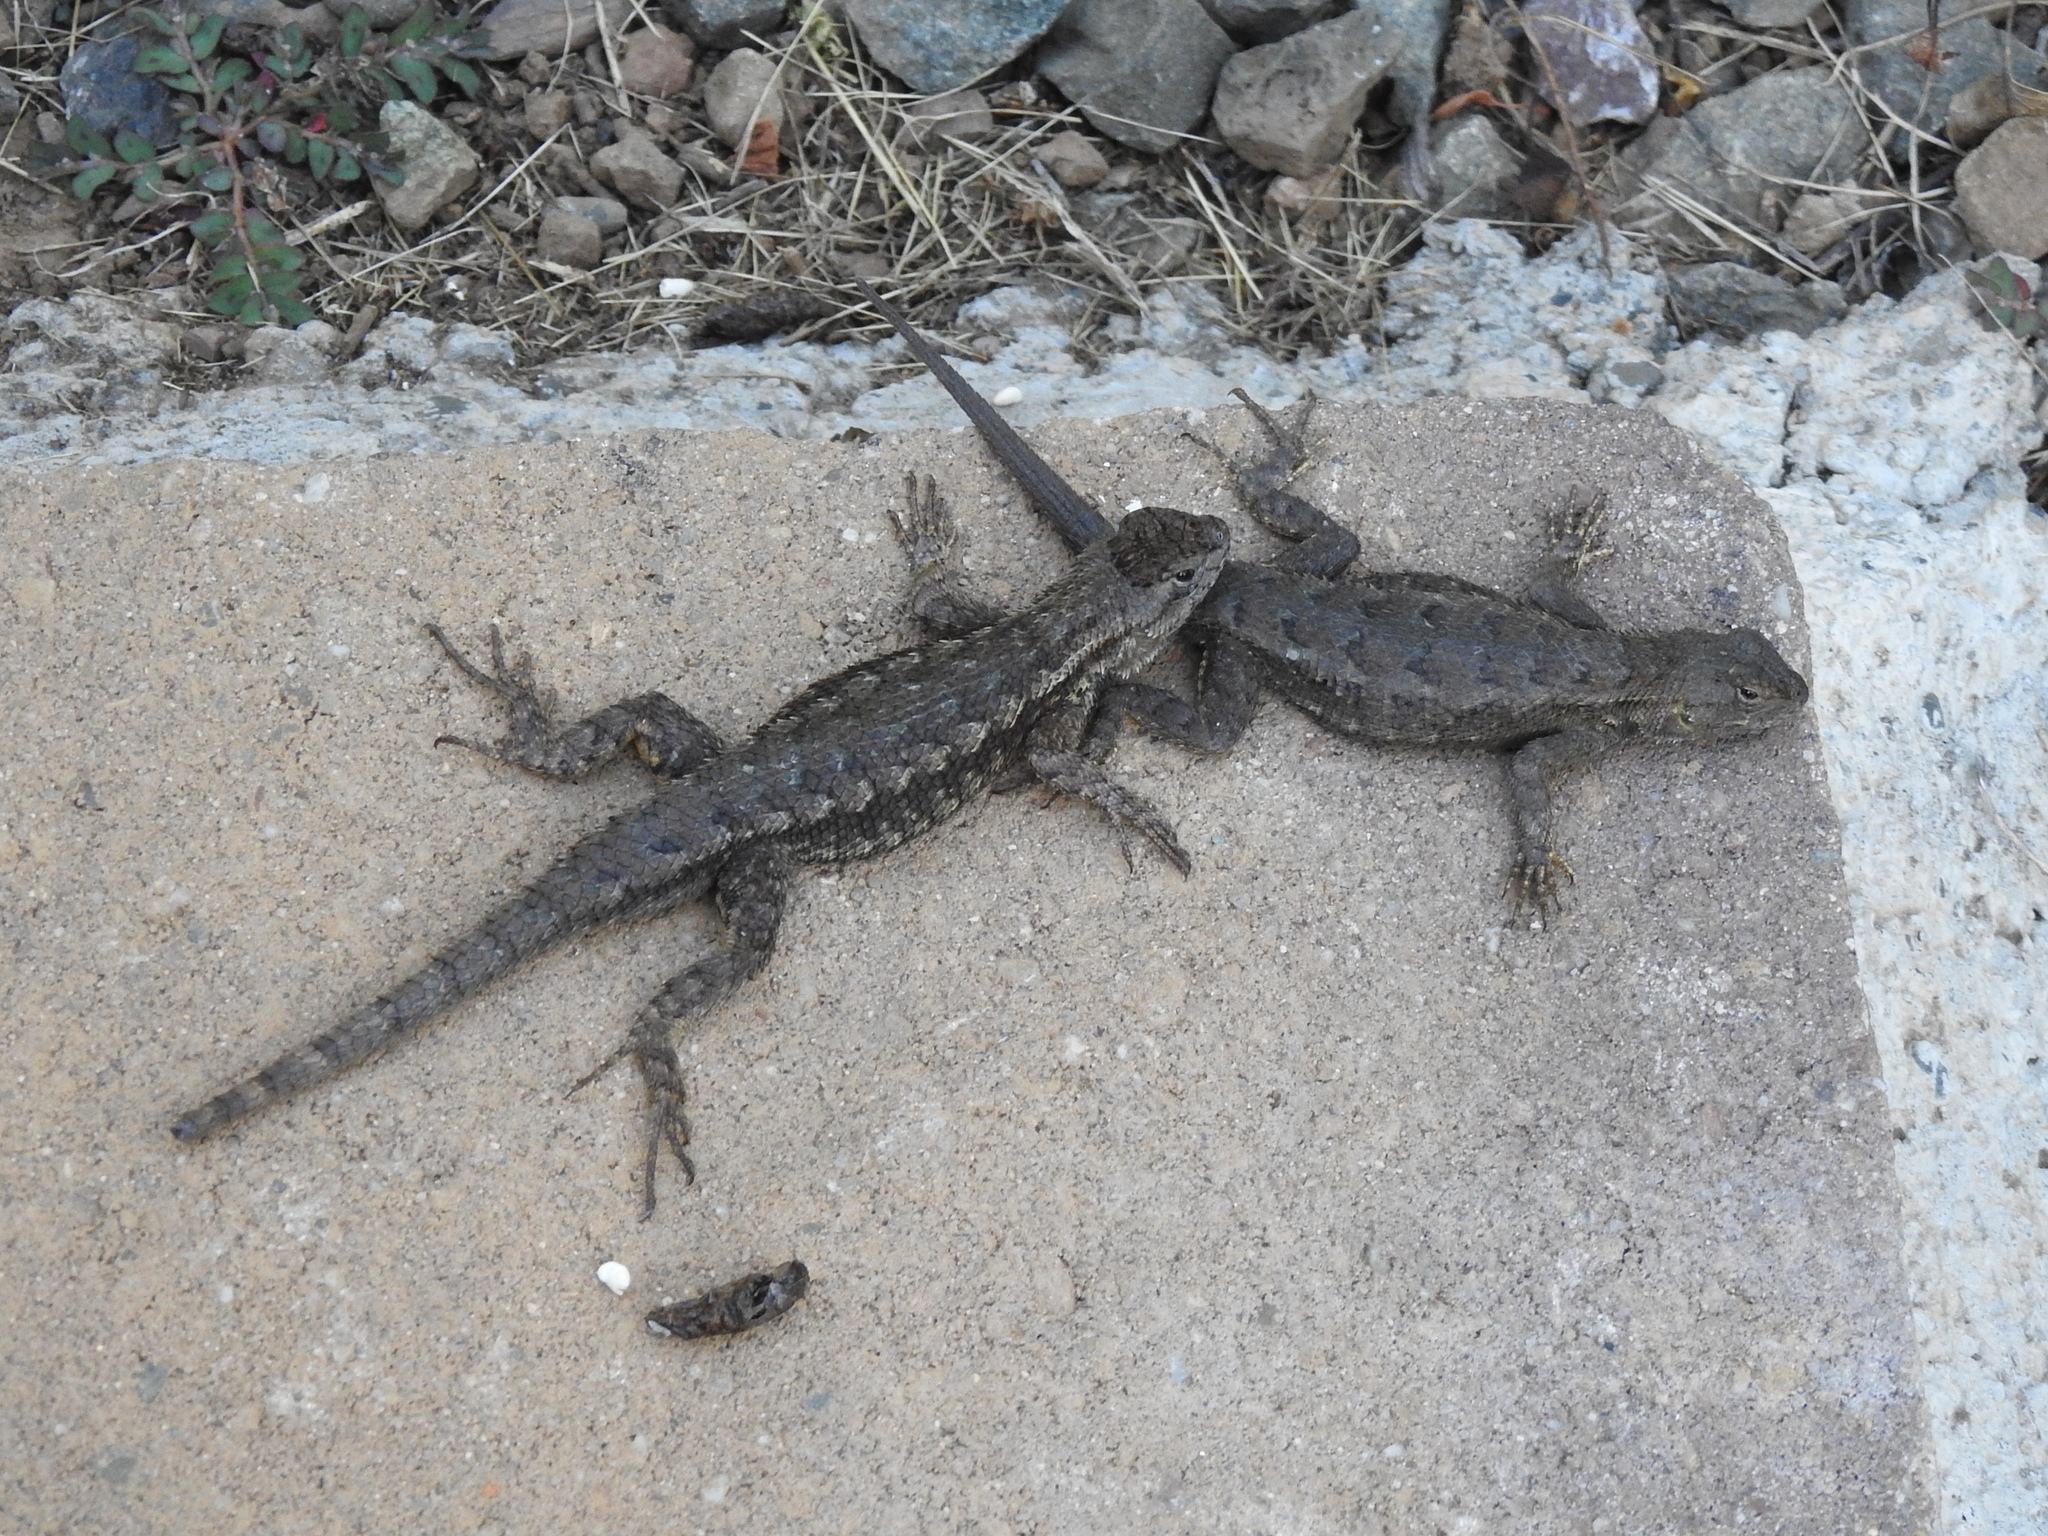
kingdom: Animalia
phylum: Chordata
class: Squamata
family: Phrynosomatidae
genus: Sceloporus
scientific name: Sceloporus occidentalis
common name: Western fence lizard
